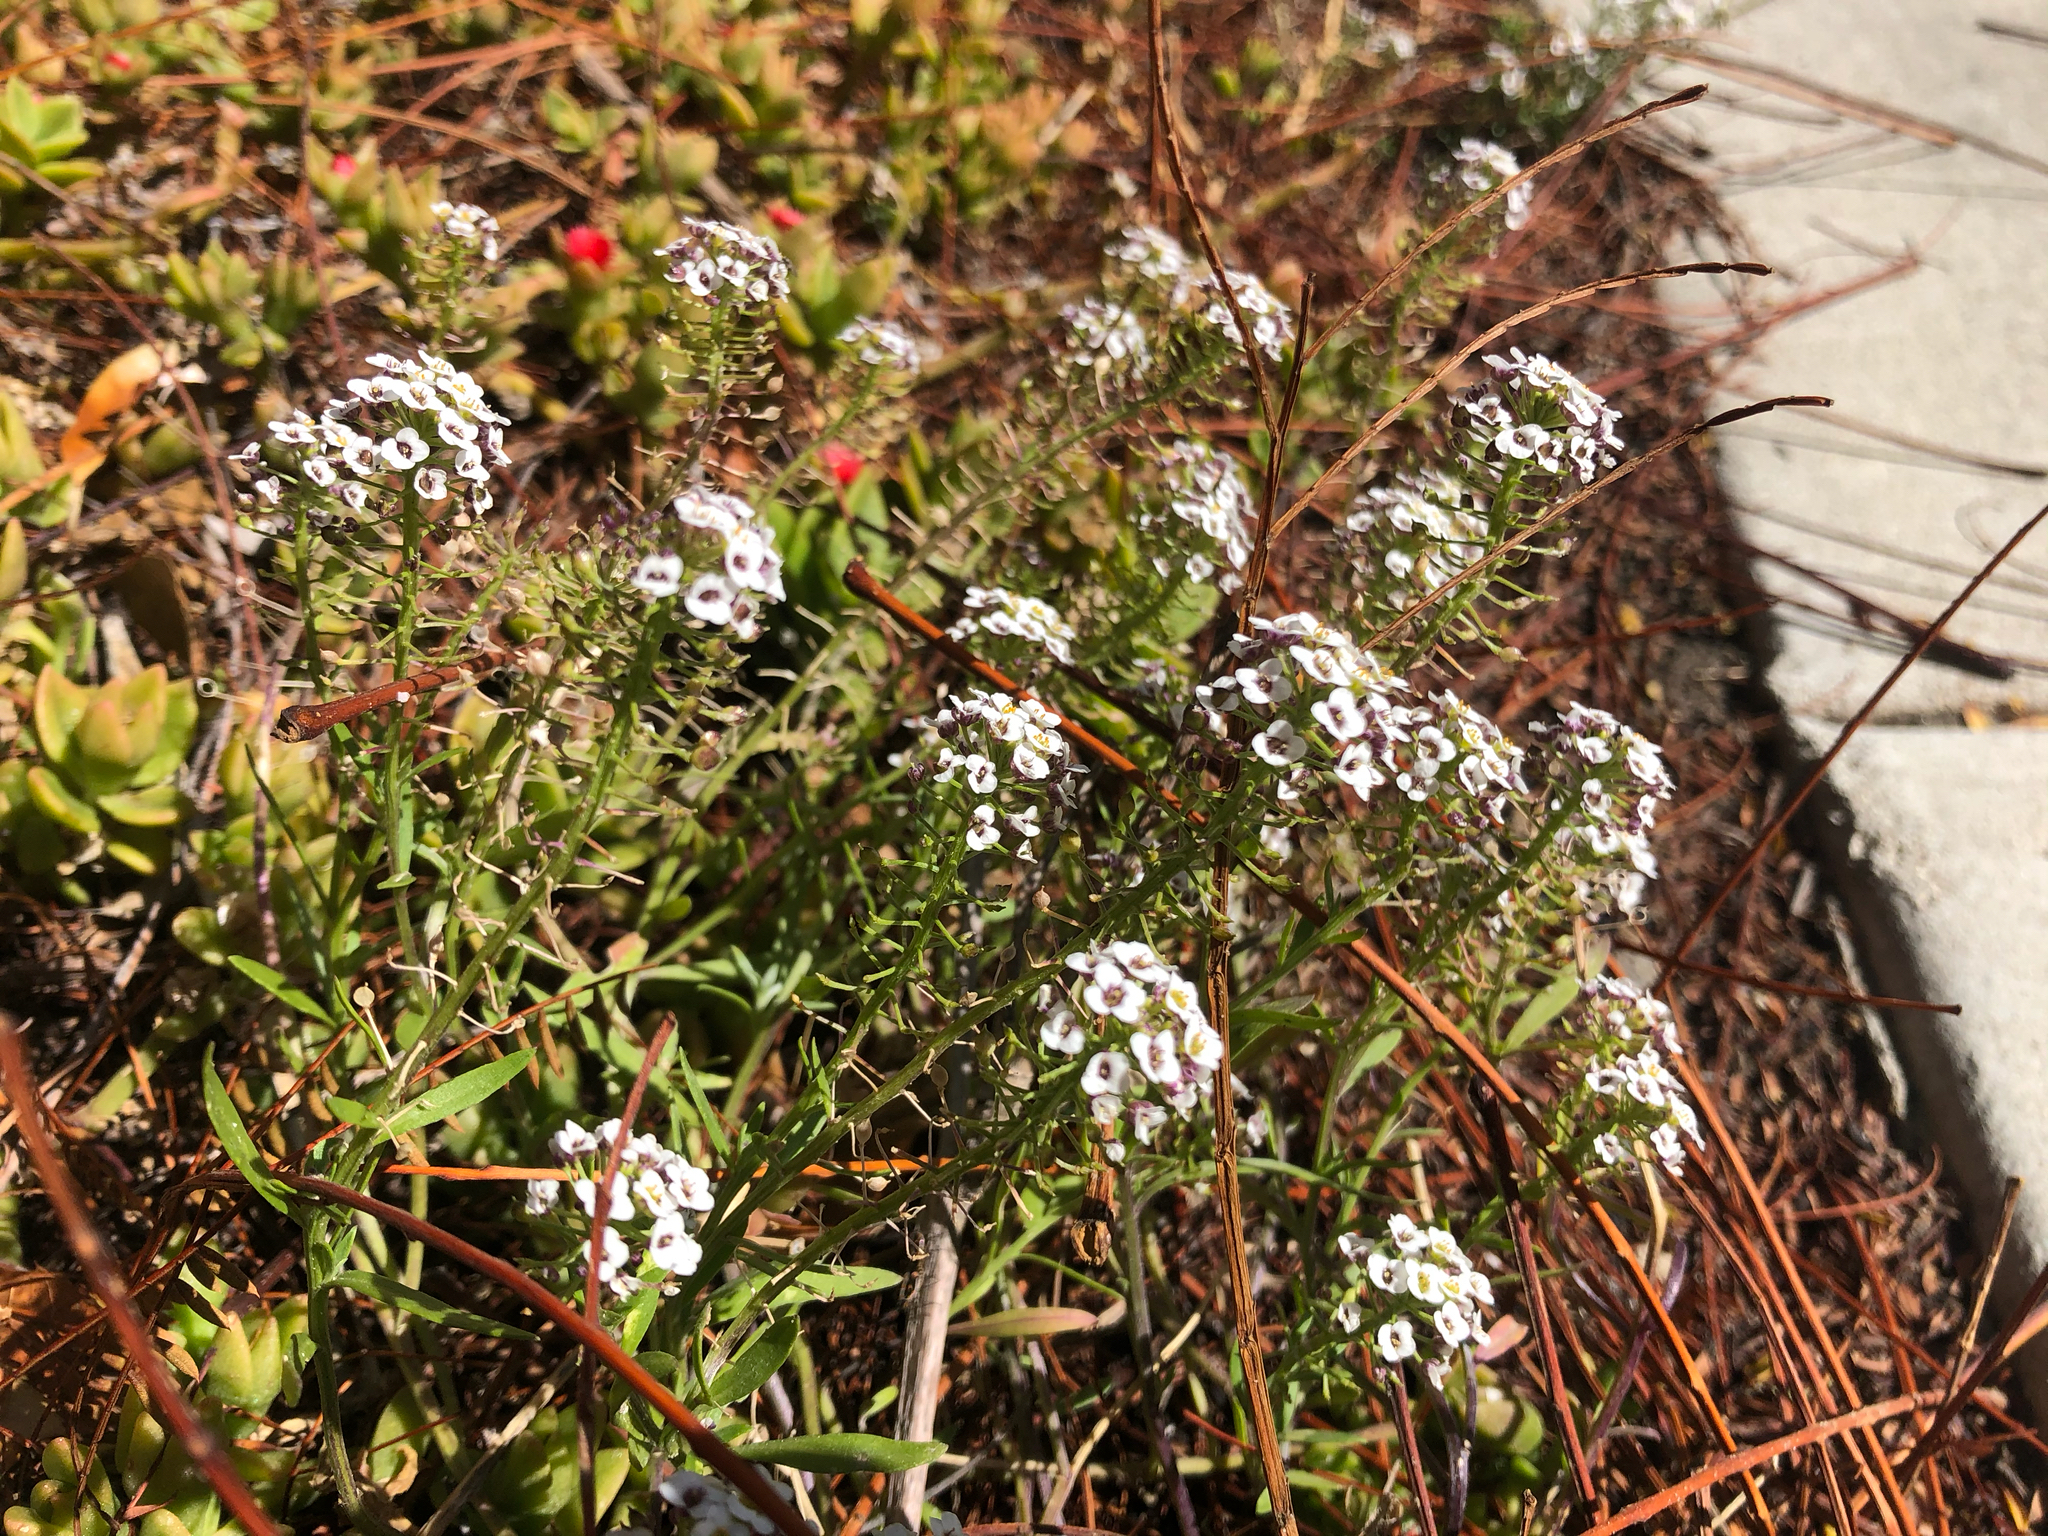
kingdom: Plantae
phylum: Tracheophyta
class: Magnoliopsida
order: Brassicales
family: Brassicaceae
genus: Lobularia
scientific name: Lobularia maritima
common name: Sweet alison
